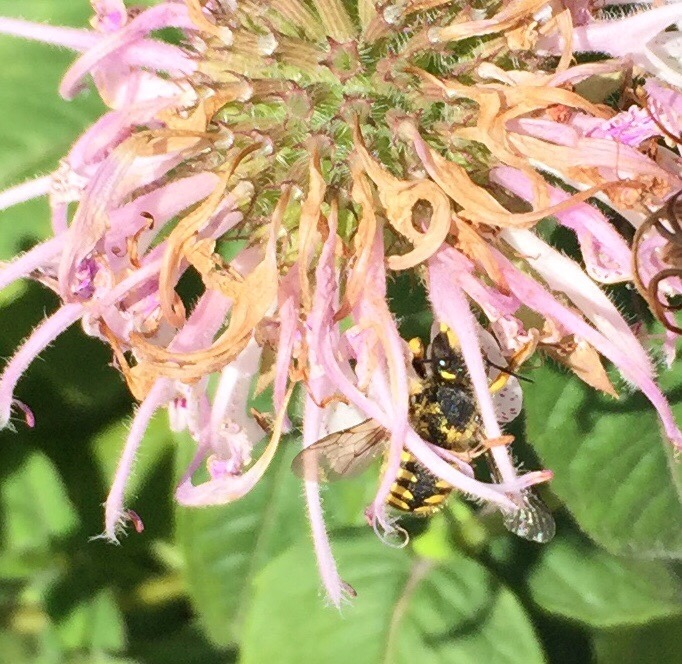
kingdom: Animalia
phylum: Arthropoda
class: Insecta
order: Hymenoptera
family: Megachilidae
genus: Anthidium
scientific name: Anthidium manicatum
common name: Wool carder bee
